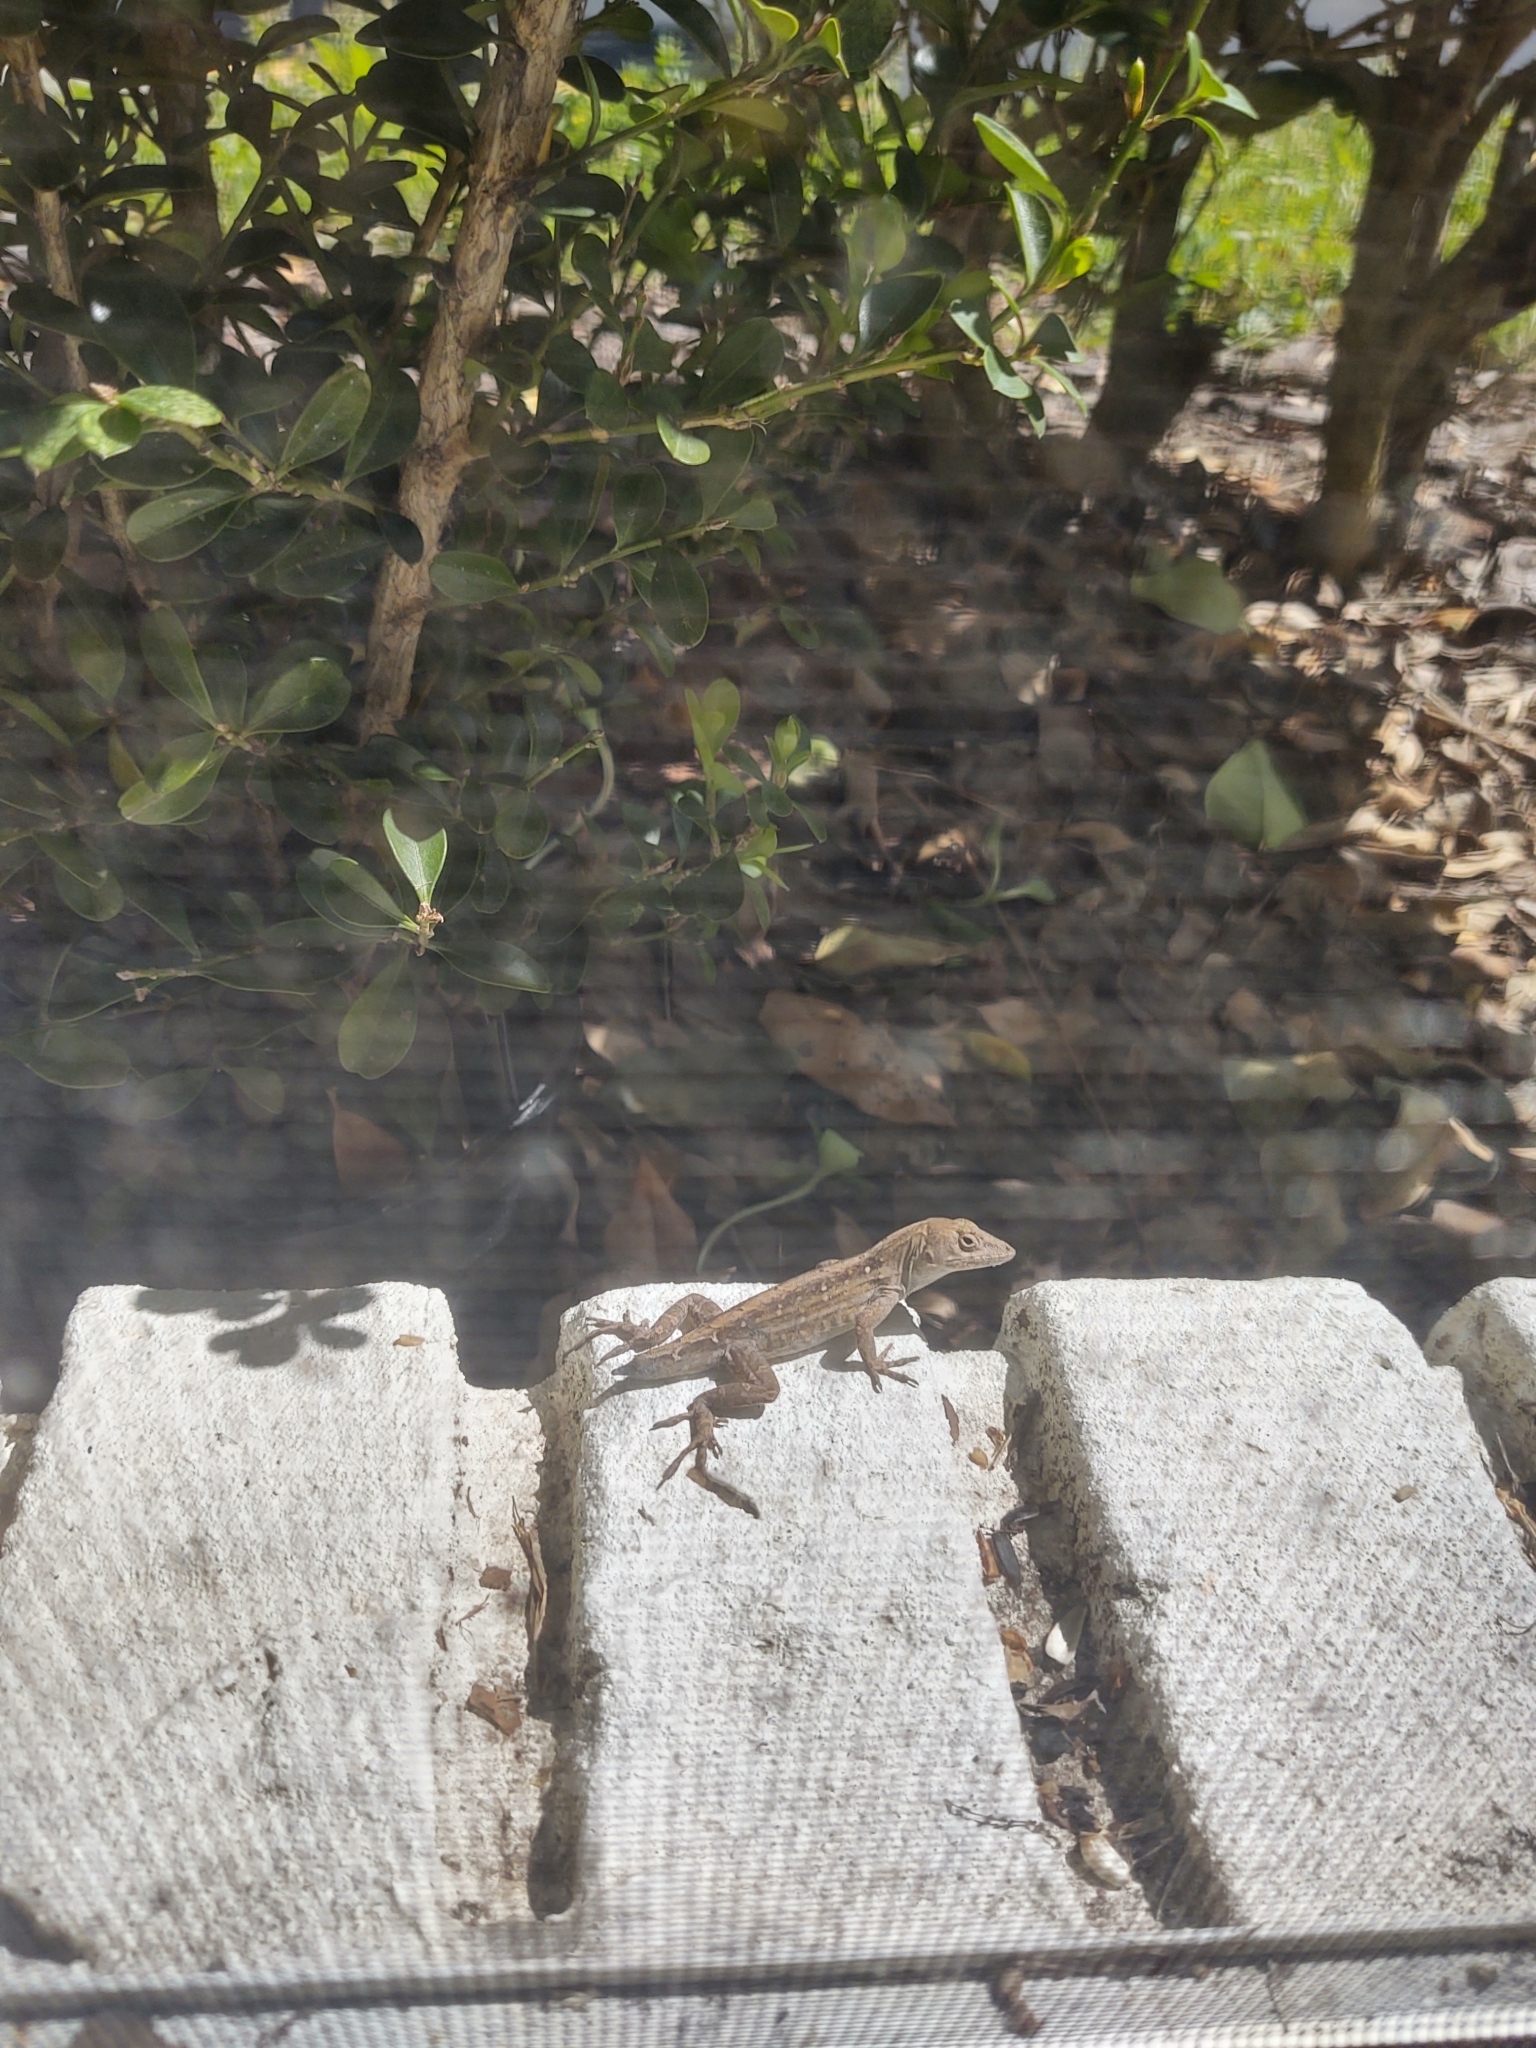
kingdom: Animalia
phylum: Chordata
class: Squamata
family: Dactyloidae
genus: Anolis
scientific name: Anolis sagrei
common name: Brown anole
